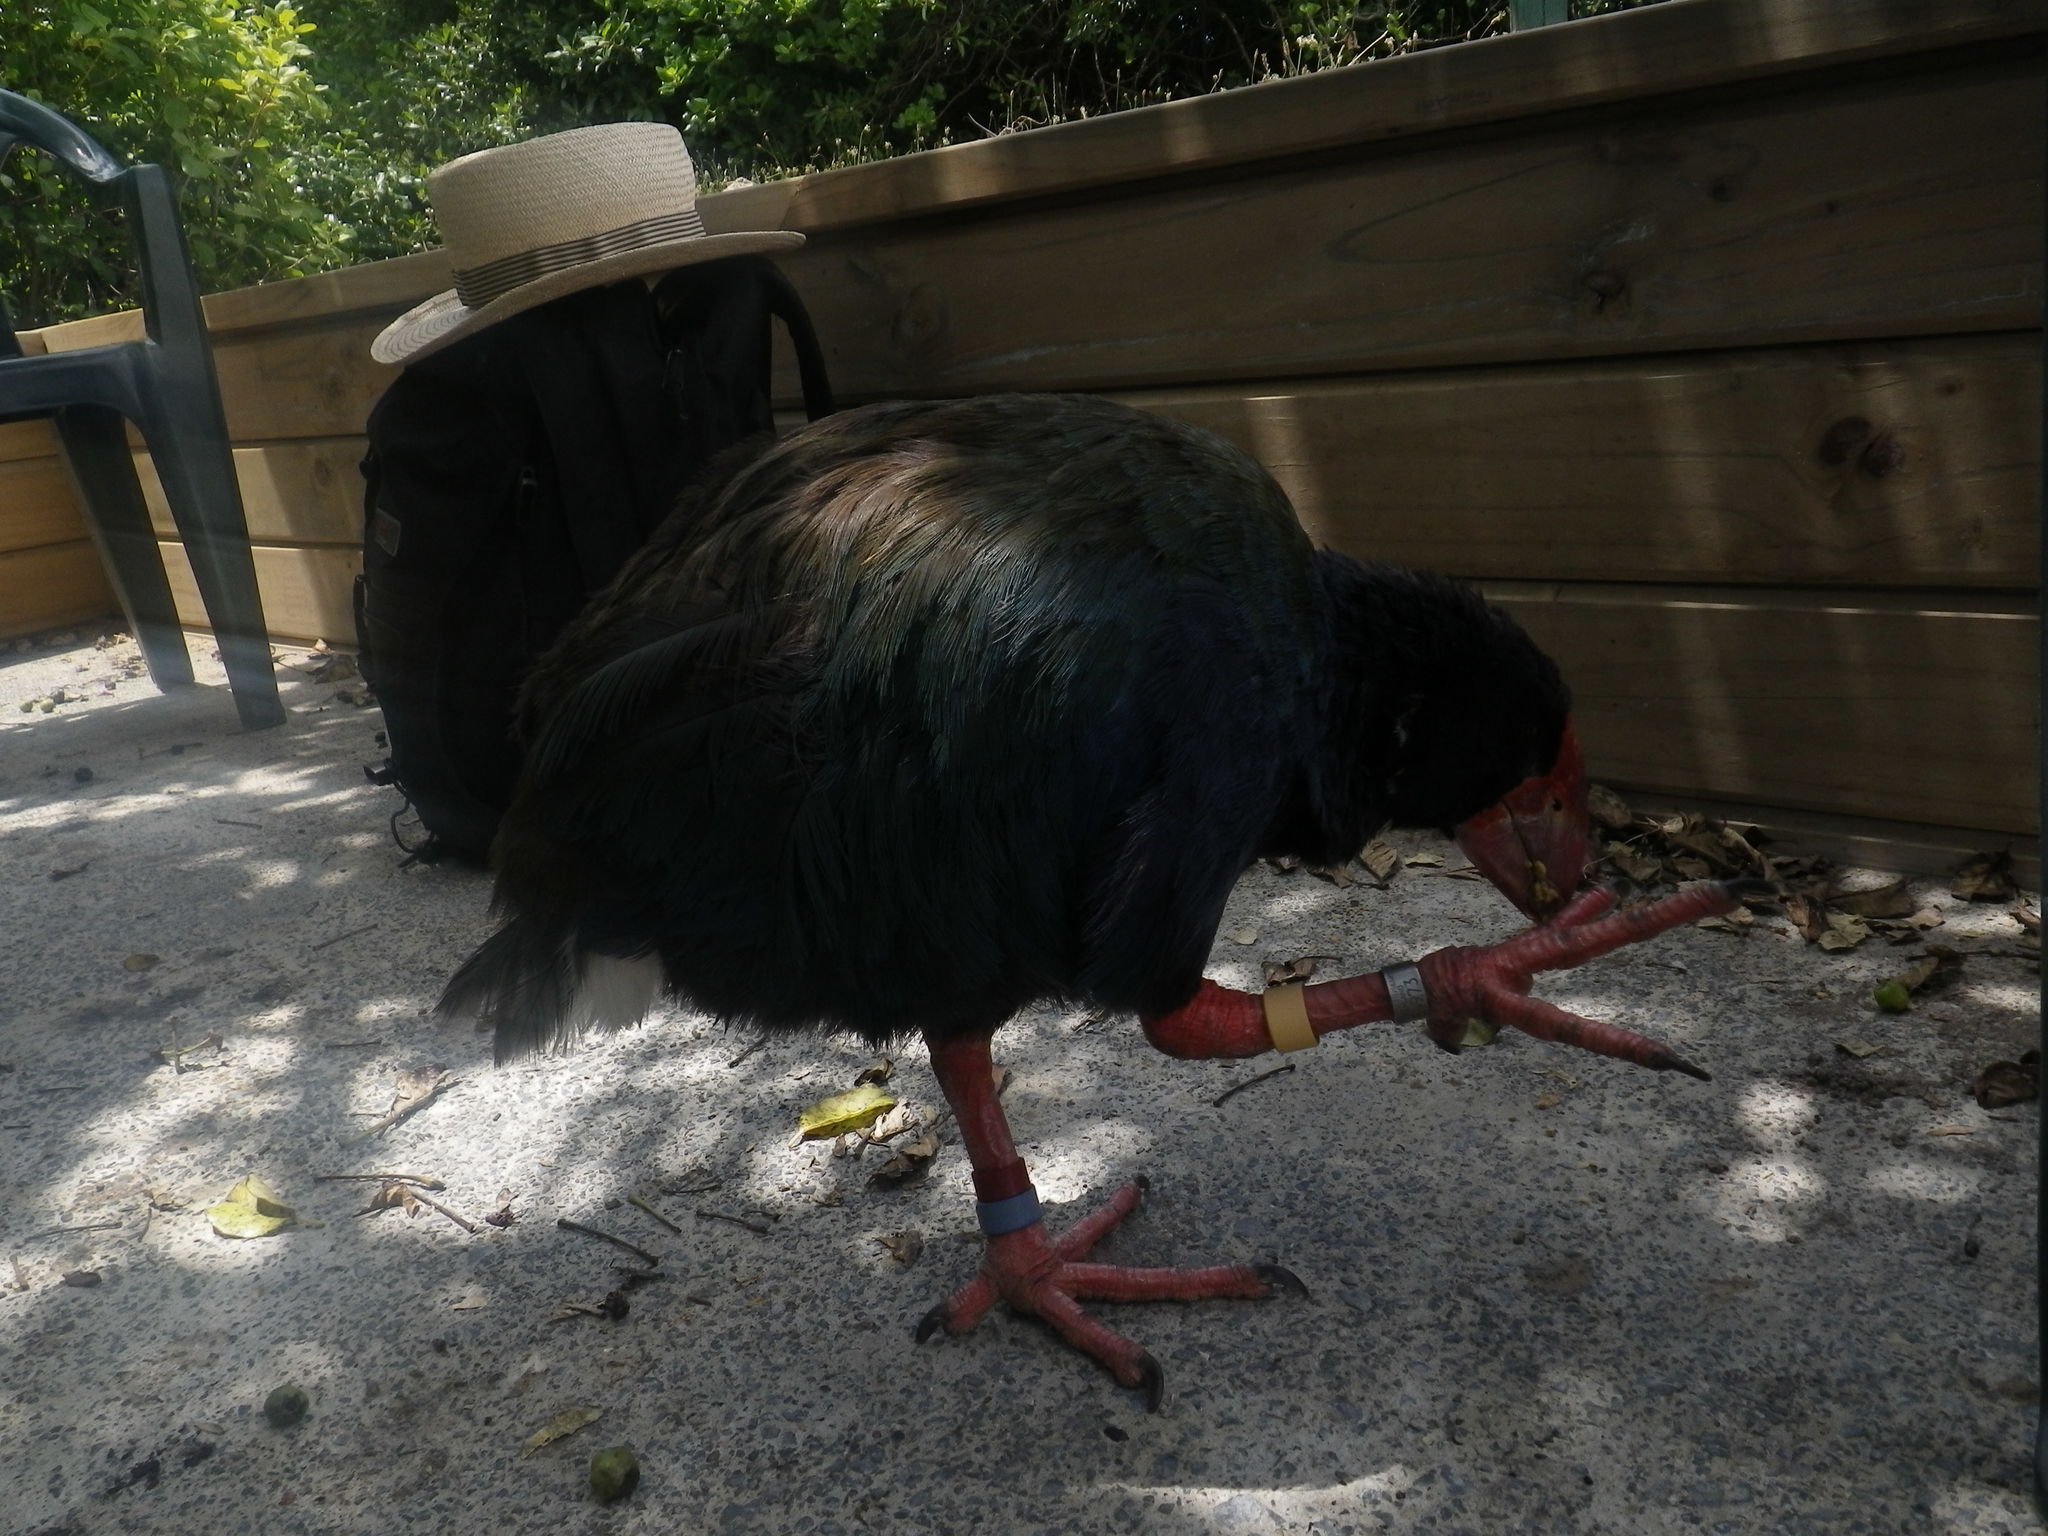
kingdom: Animalia
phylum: Chordata
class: Aves
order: Gruiformes
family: Rallidae
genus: Porphyrio
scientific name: Porphyrio hochstetteri
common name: South island takahe
